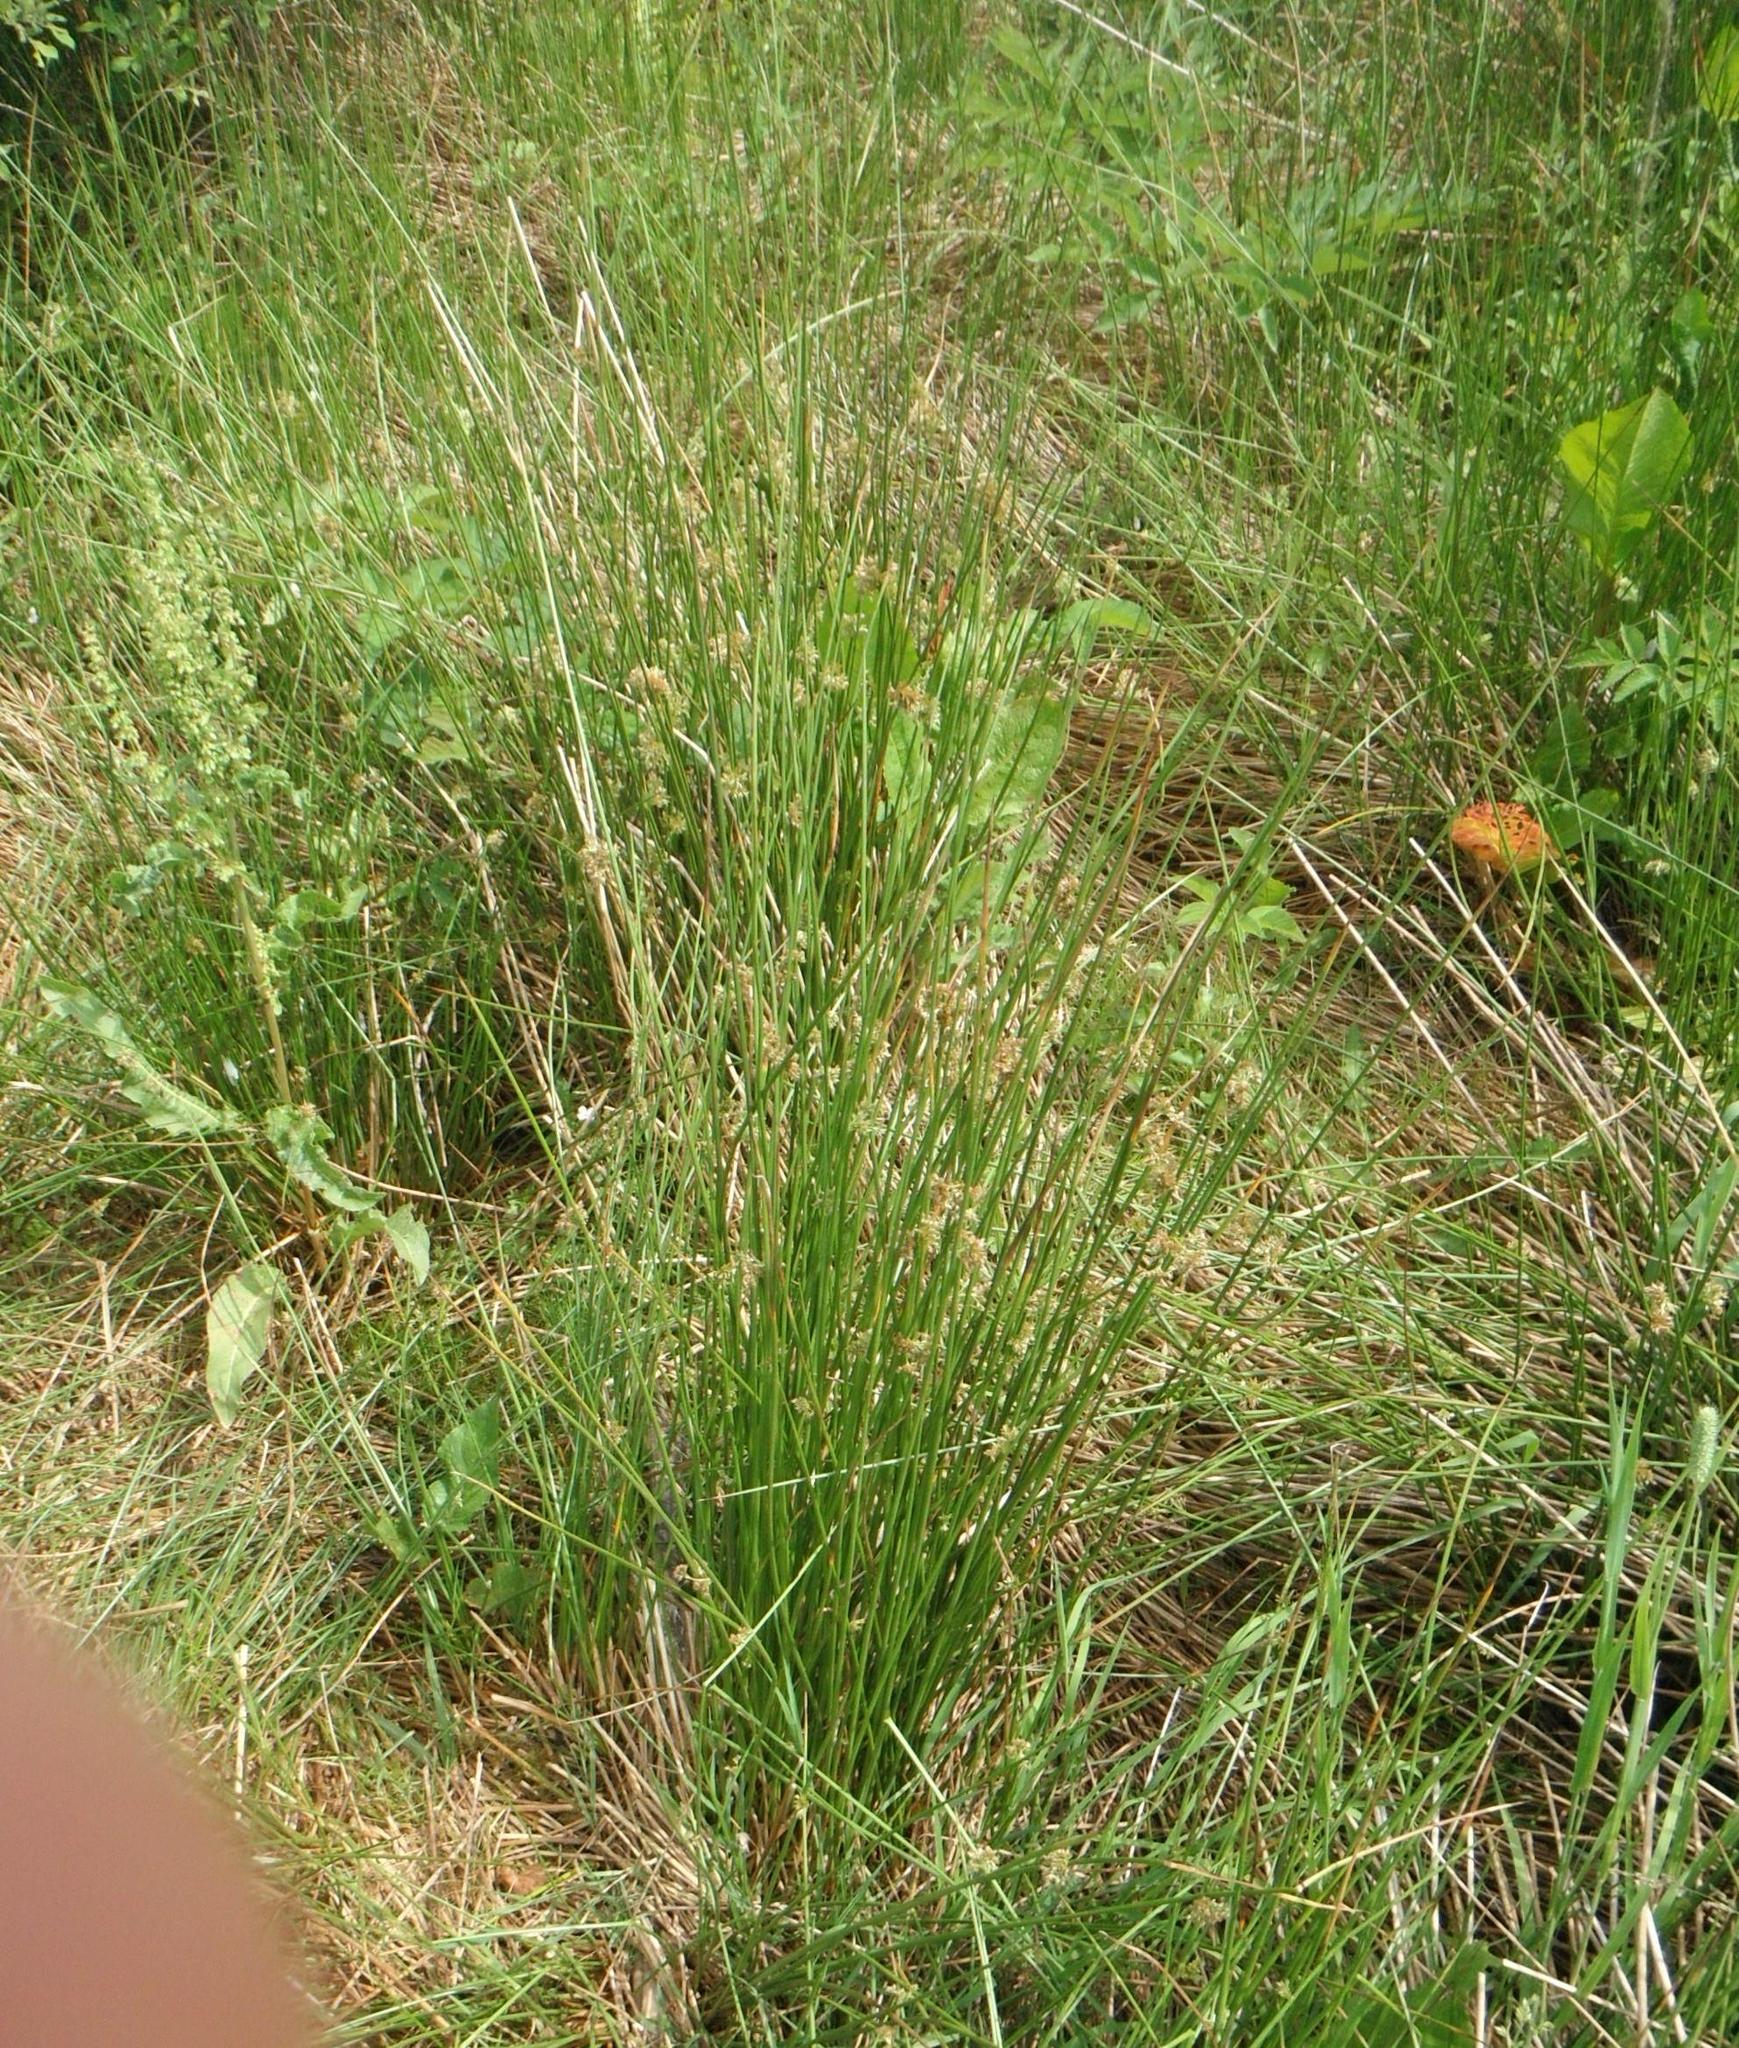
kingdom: Plantae
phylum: Tracheophyta
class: Liliopsida
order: Poales
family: Juncaceae
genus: Juncus
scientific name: Juncus effusus
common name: Soft rush
